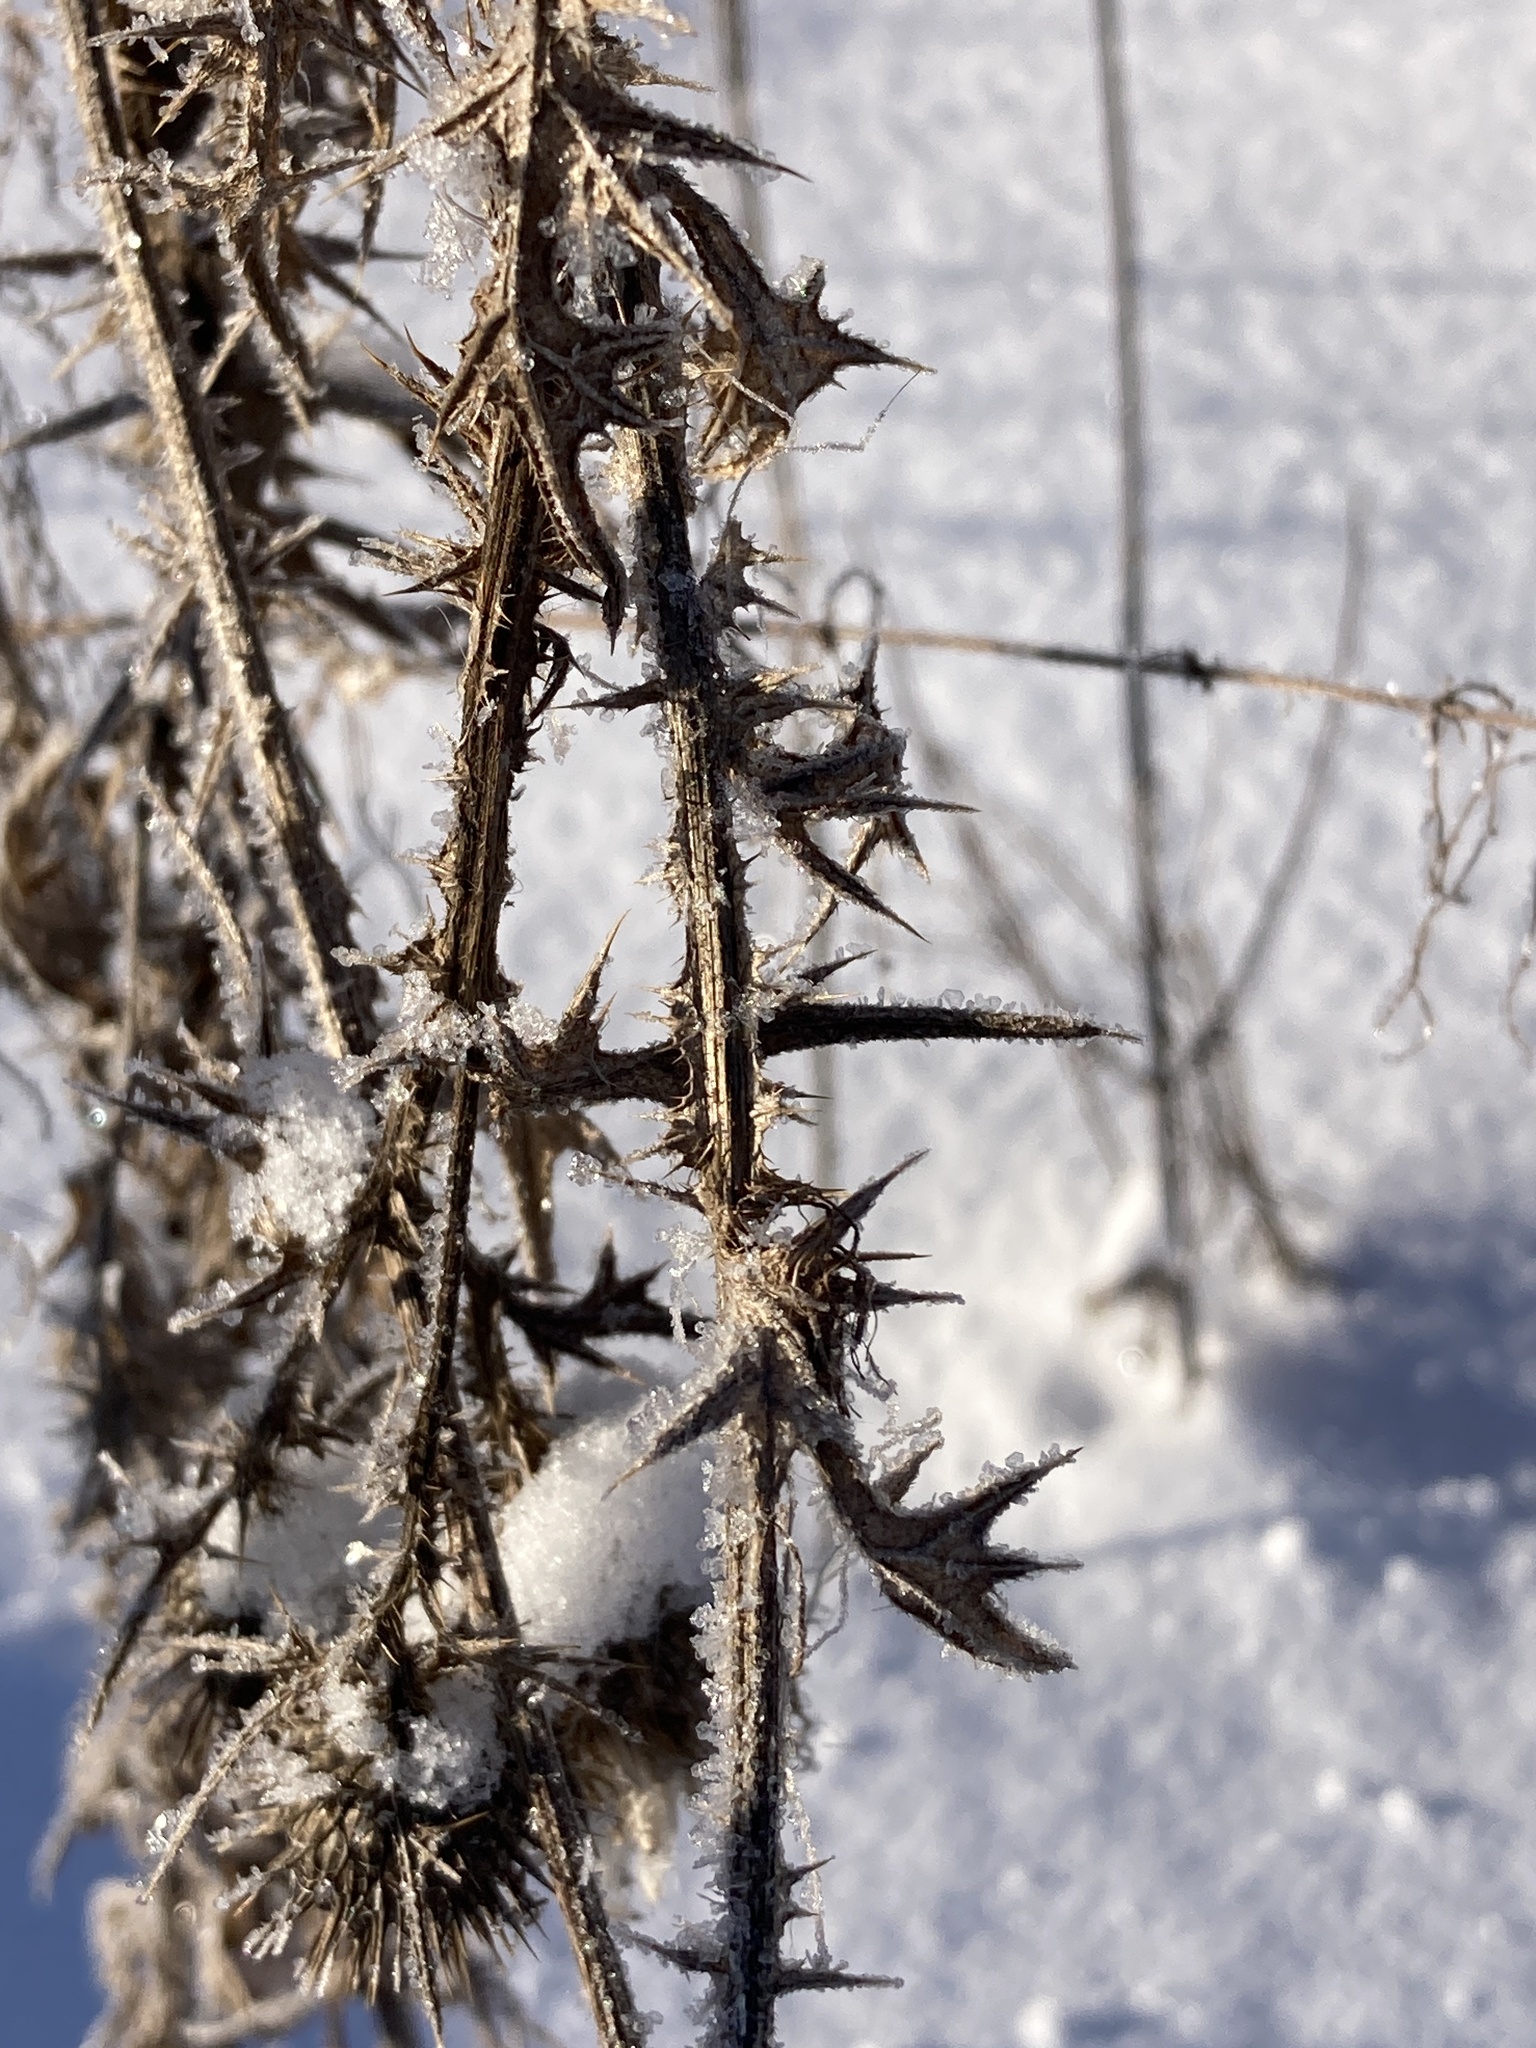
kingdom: Plantae
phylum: Tracheophyta
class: Magnoliopsida
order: Asterales
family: Asteraceae
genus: Cirsium
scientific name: Cirsium vulgare
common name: Bull thistle
